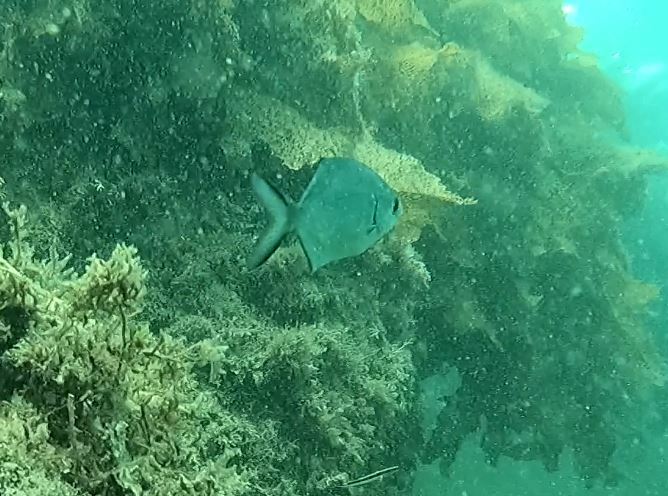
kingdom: Animalia
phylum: Chordata
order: Perciformes
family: Kyphosidae
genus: Scorpis
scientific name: Scorpis lineolata
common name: Sweep
